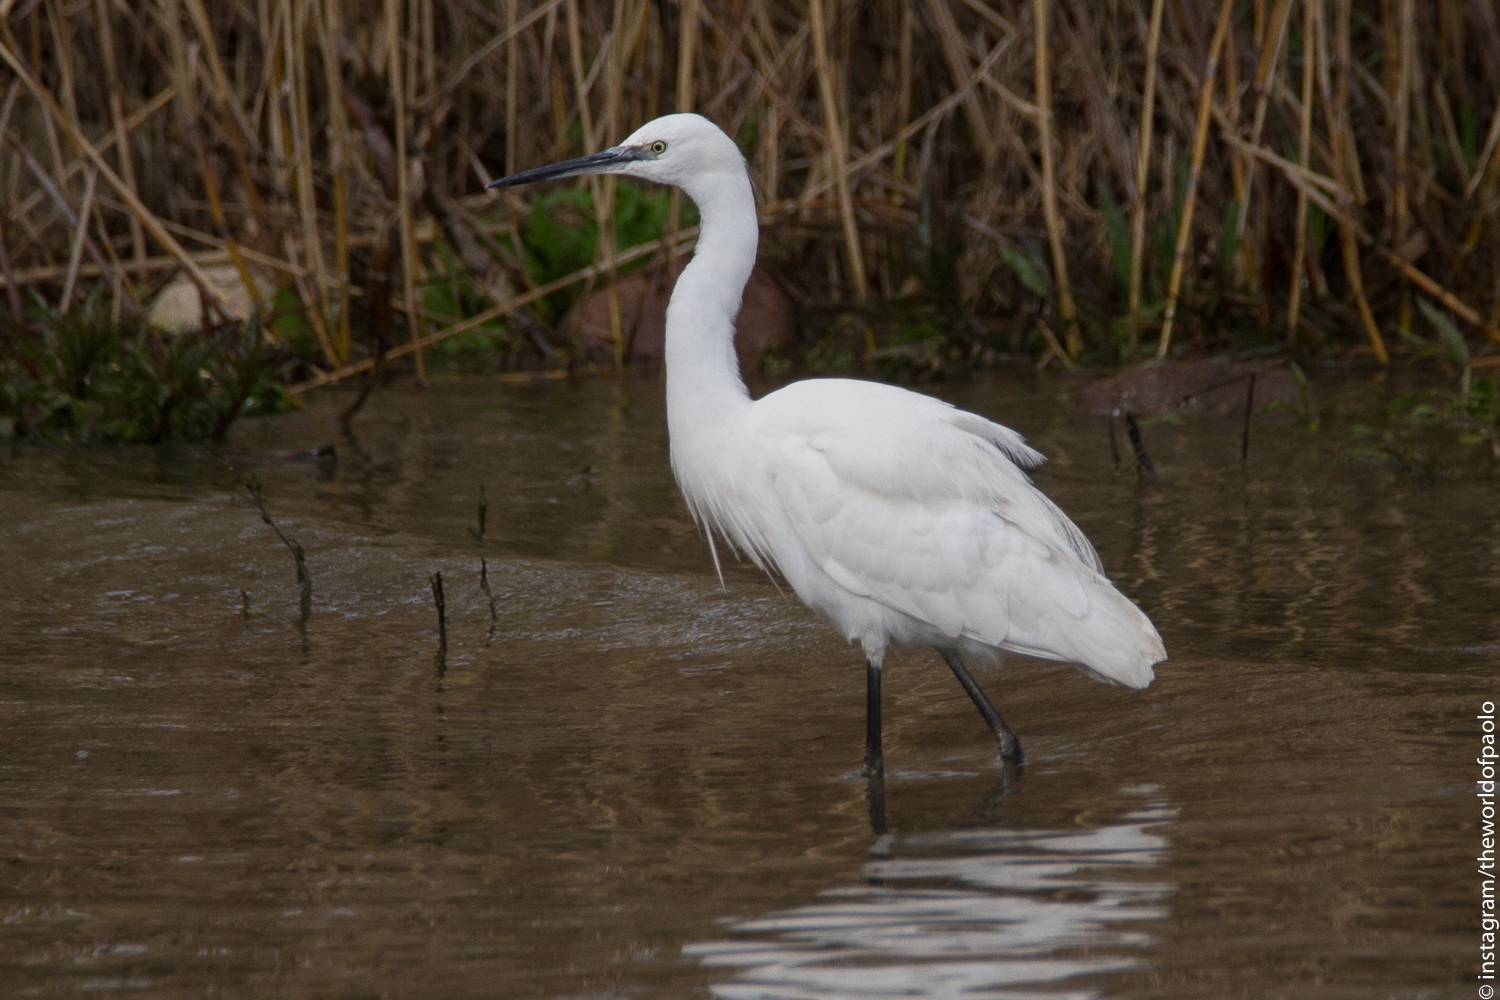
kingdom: Animalia
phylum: Chordata
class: Aves
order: Pelecaniformes
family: Ardeidae
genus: Egretta
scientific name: Egretta garzetta
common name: Little egret
